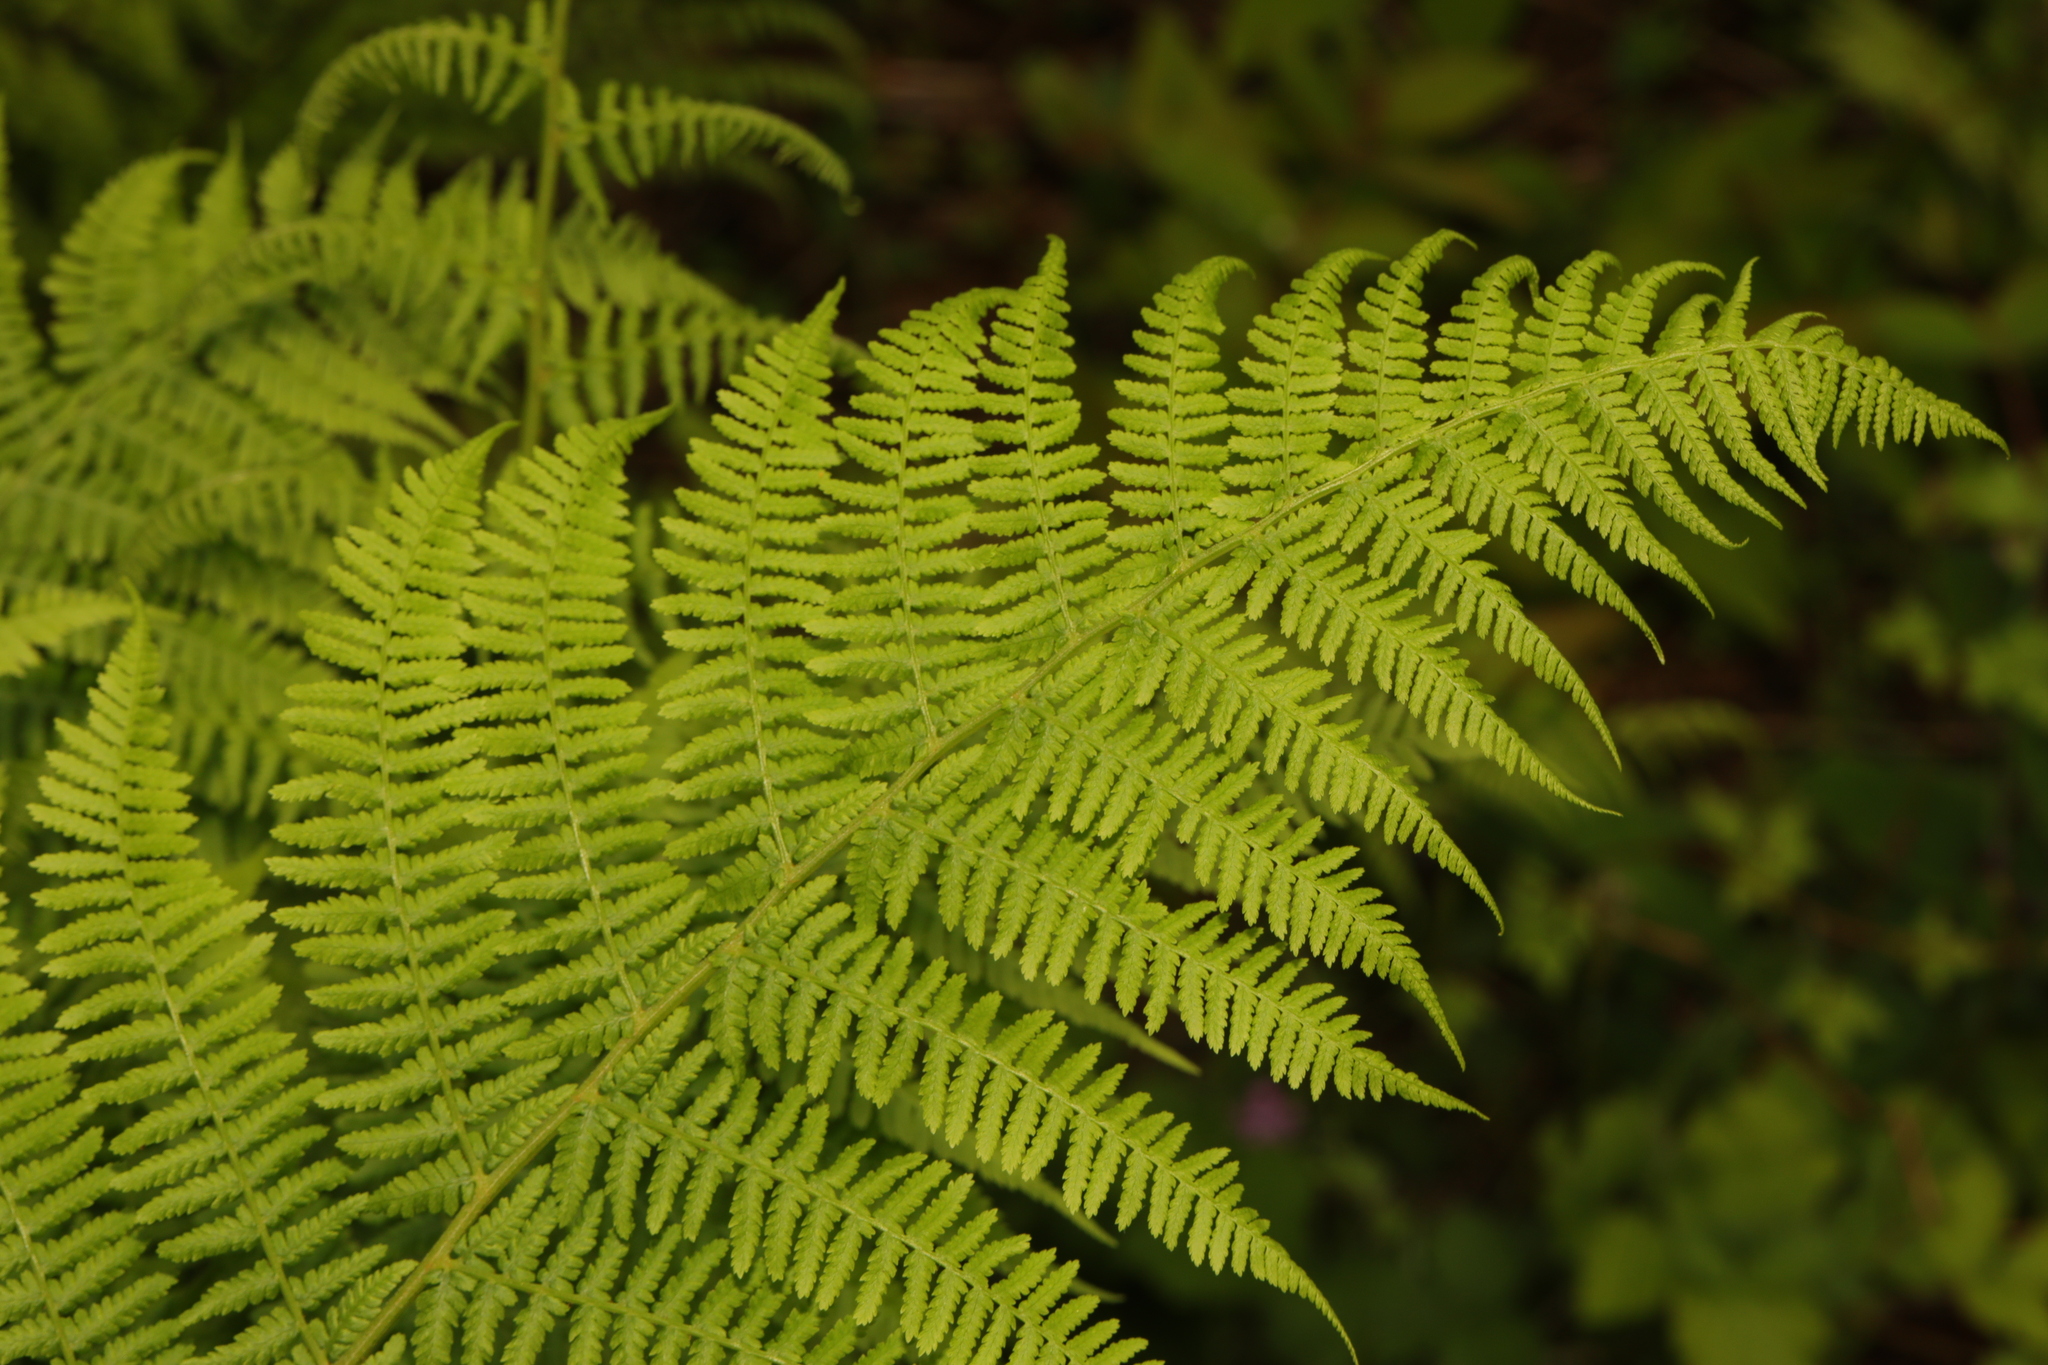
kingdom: Plantae
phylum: Tracheophyta
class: Polypodiopsida
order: Polypodiales
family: Athyriaceae
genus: Athyrium
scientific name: Athyrium filix-femina
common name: Lady fern
